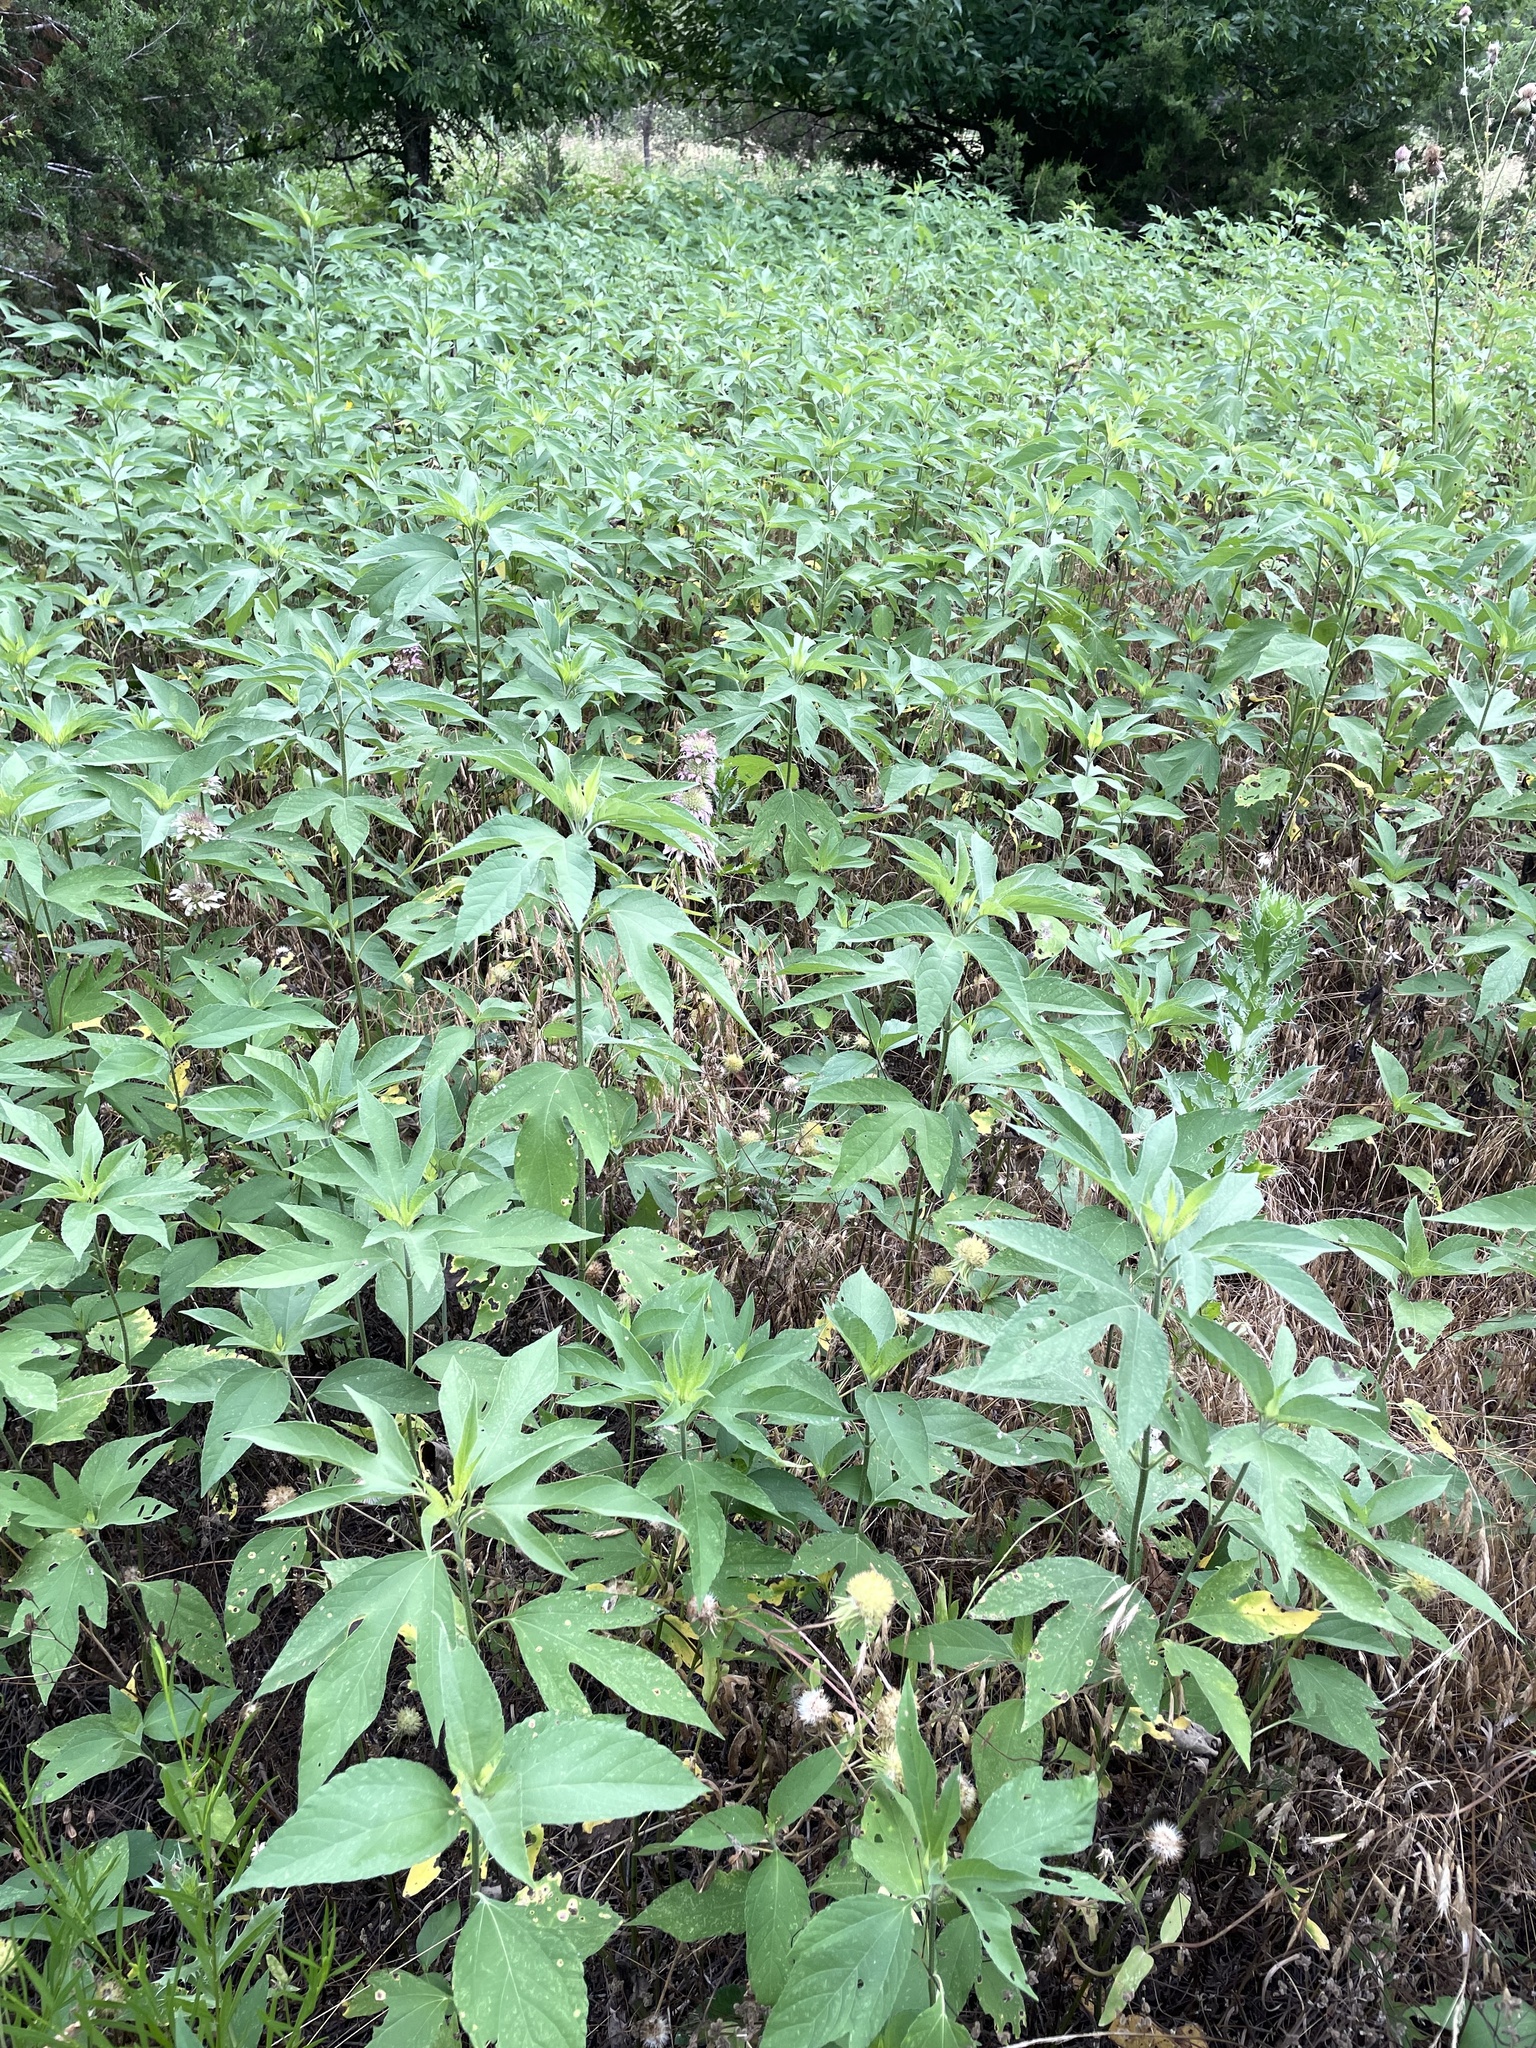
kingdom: Plantae
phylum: Tracheophyta
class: Magnoliopsida
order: Asterales
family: Asteraceae
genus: Ambrosia
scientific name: Ambrosia trifida
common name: Giant ragweed
